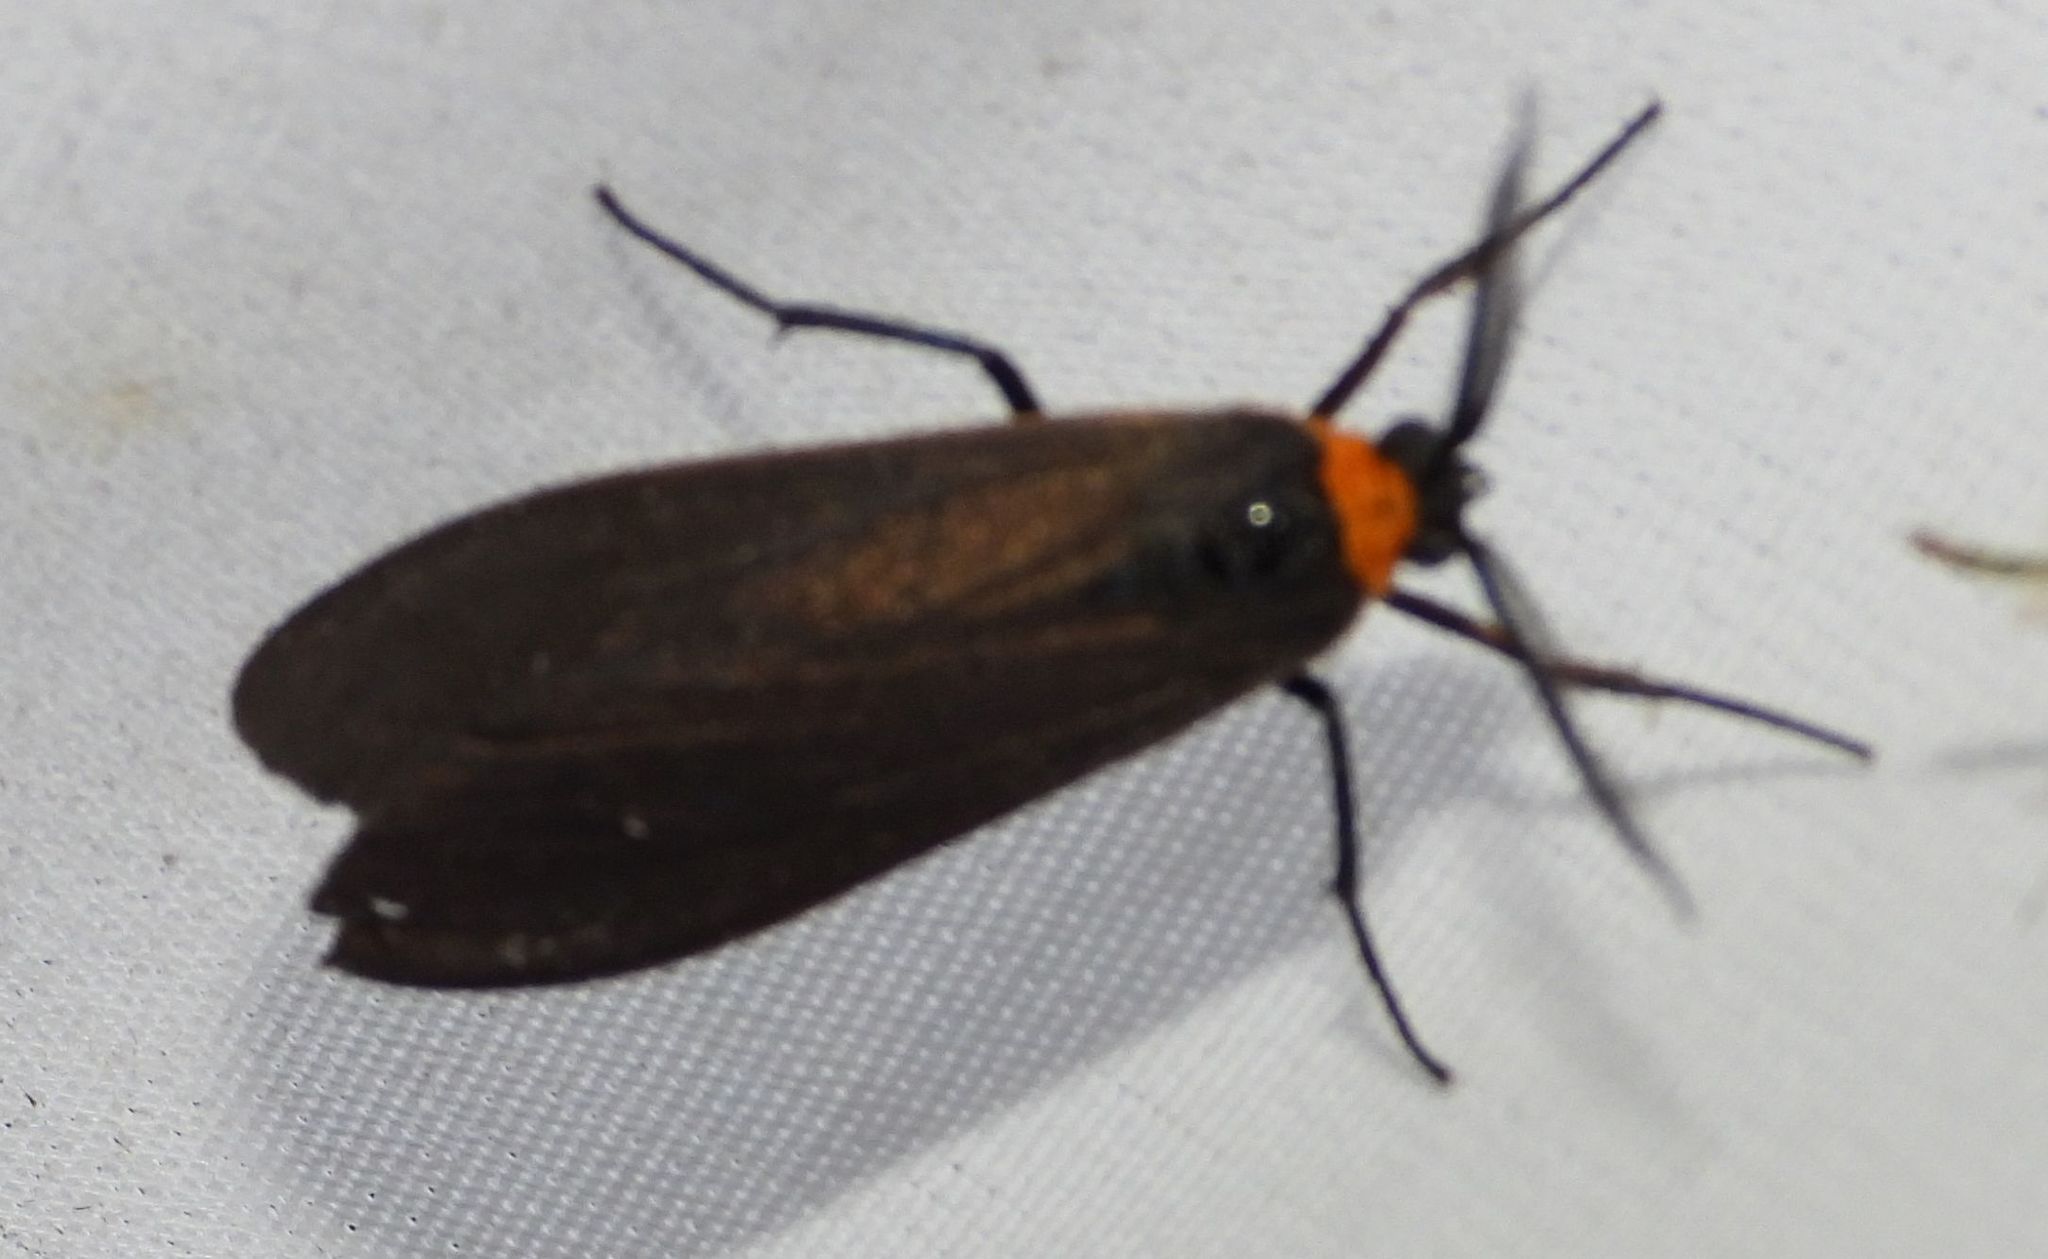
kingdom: Animalia
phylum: Arthropoda
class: Insecta
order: Lepidoptera
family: Erebidae
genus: Cisseps
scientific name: Cisseps fulvicollis
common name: Yellow-collared scape moth
